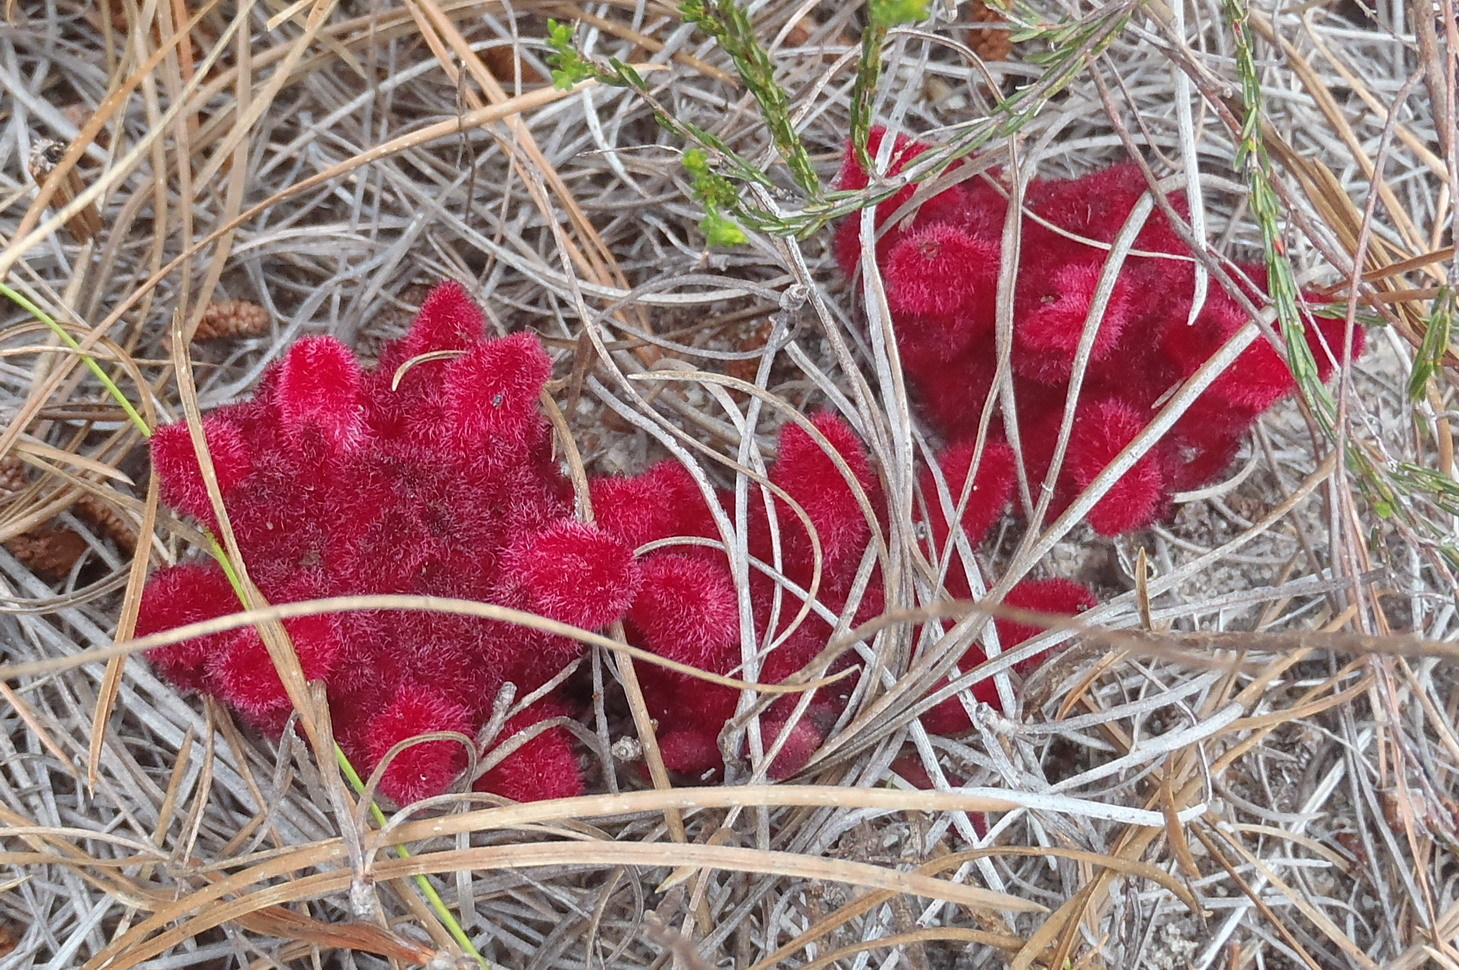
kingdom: Plantae
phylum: Tracheophyta
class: Magnoliopsida
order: Lamiales
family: Orobanchaceae
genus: Hyobanche
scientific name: Hyobanche sanguinea
